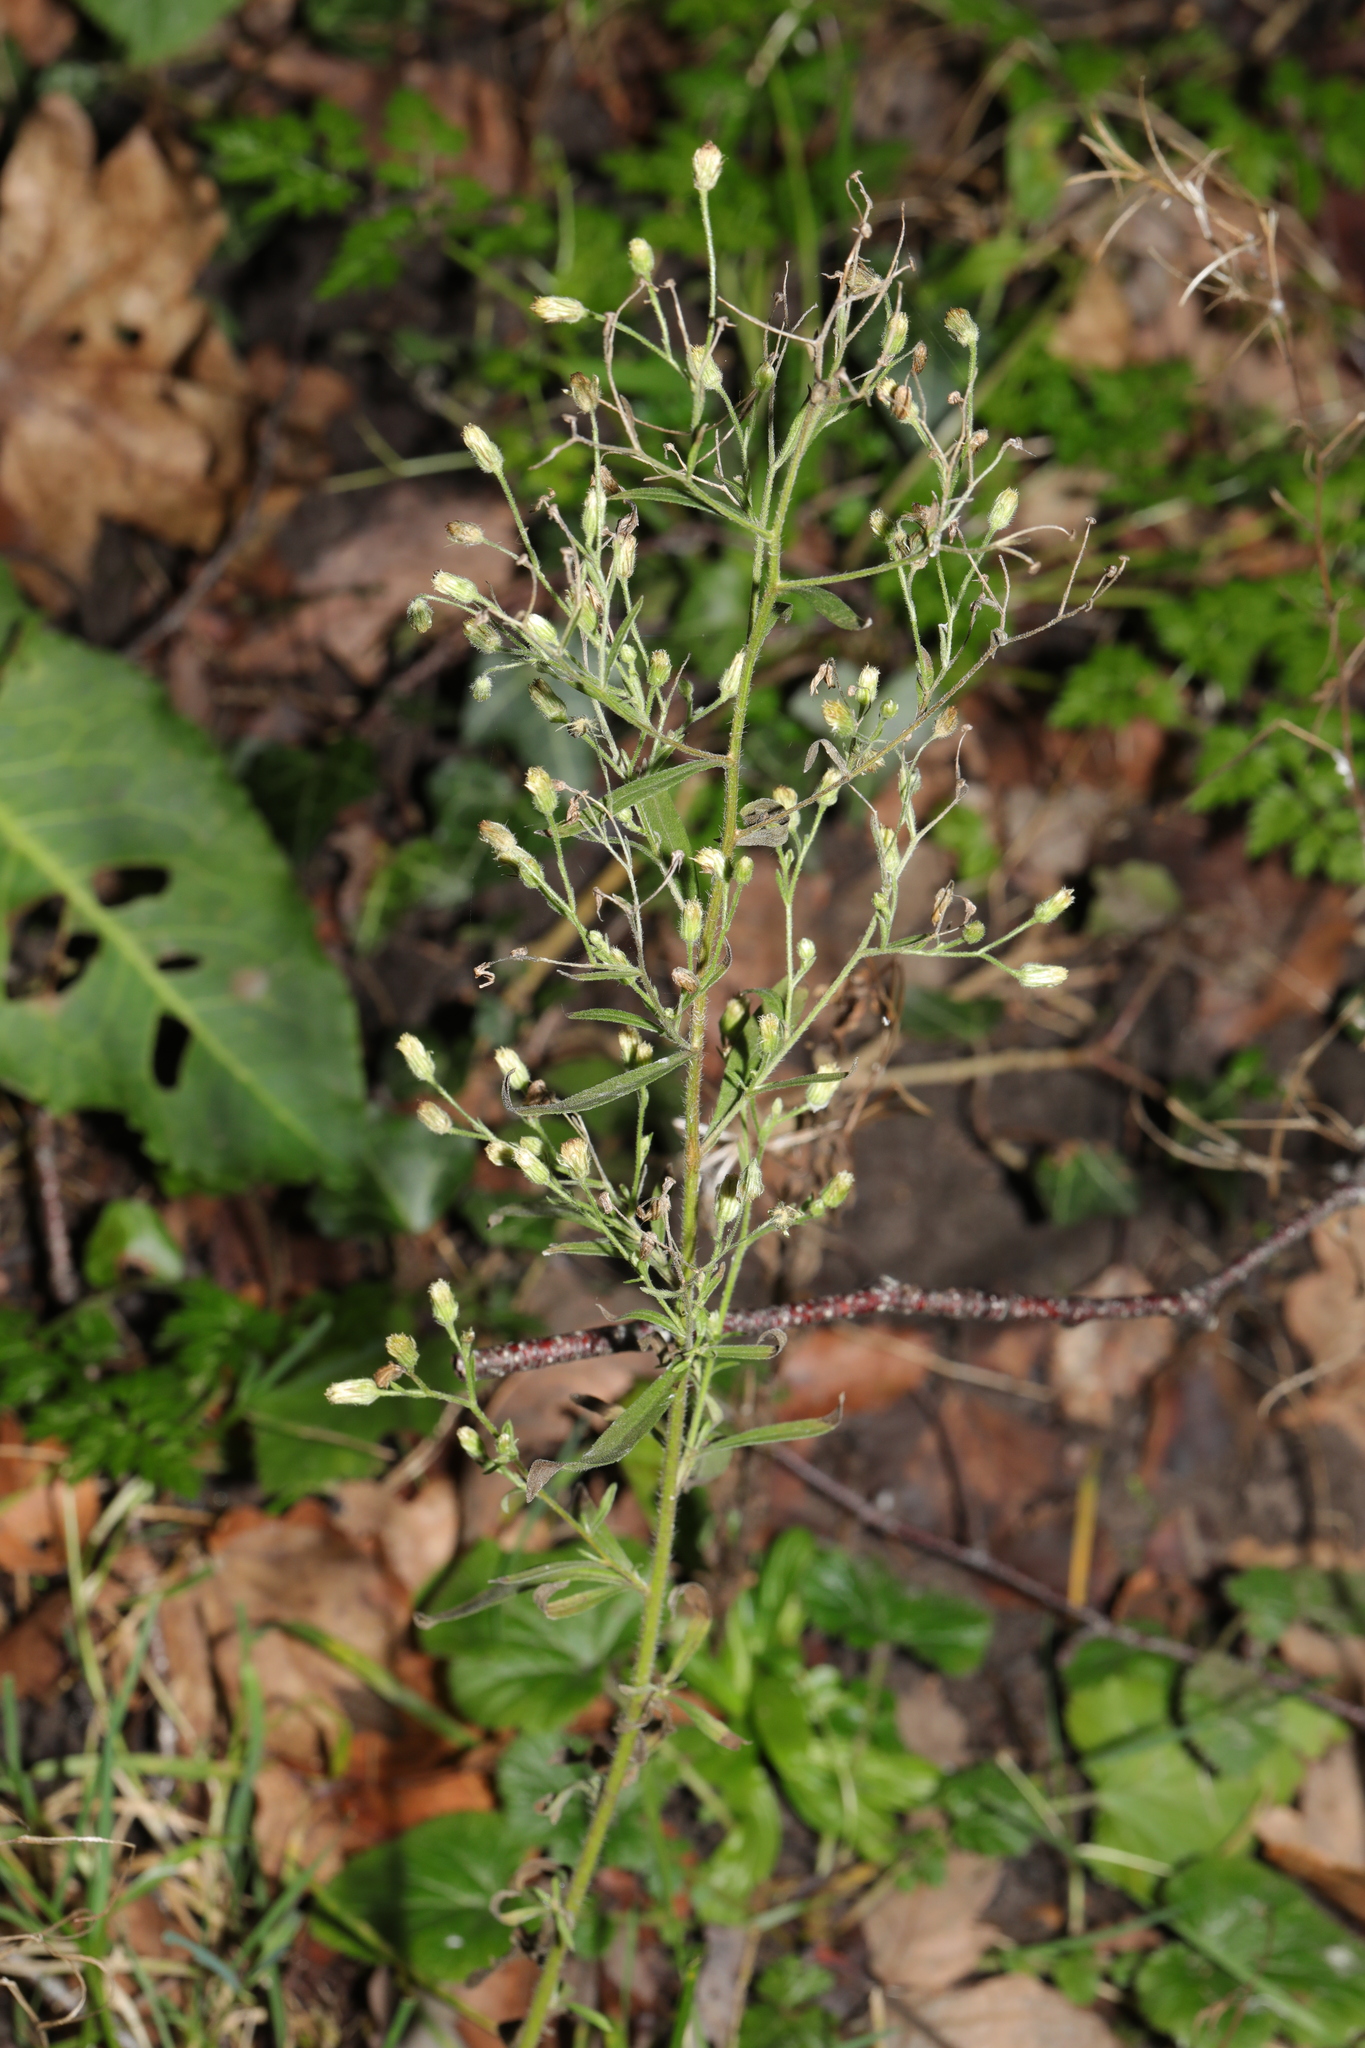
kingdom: Plantae
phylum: Tracheophyta
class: Magnoliopsida
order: Asterales
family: Asteraceae
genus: Erigeron
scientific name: Erigeron sumatrensis
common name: Daisy
